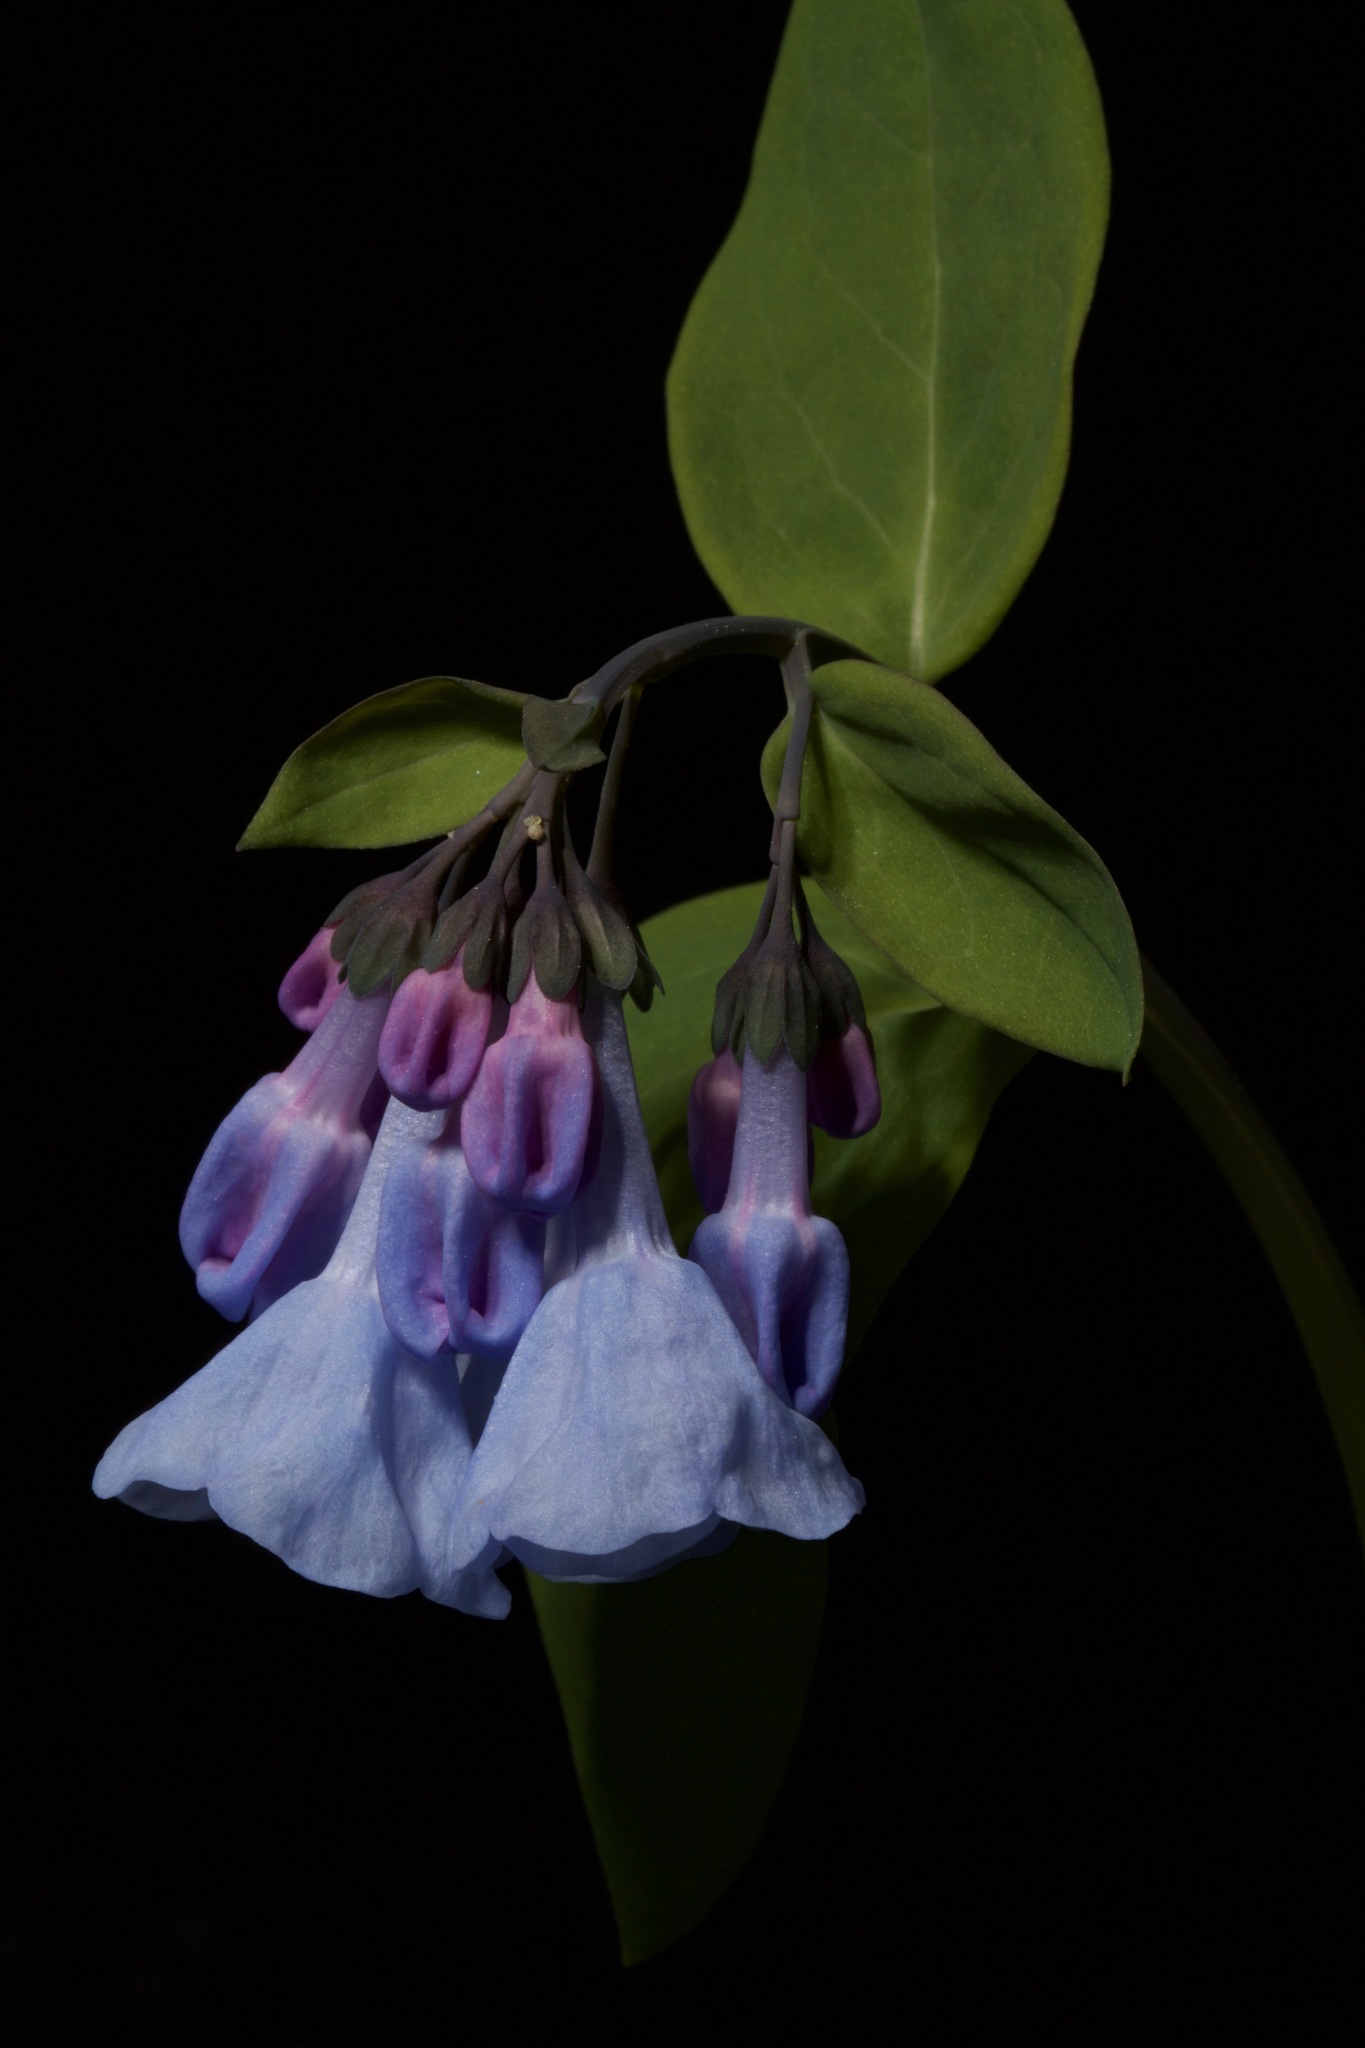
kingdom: Plantae
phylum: Tracheophyta
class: Magnoliopsida
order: Boraginales
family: Boraginaceae
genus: Mertensia
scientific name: Mertensia virginica
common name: Virginia bluebells
